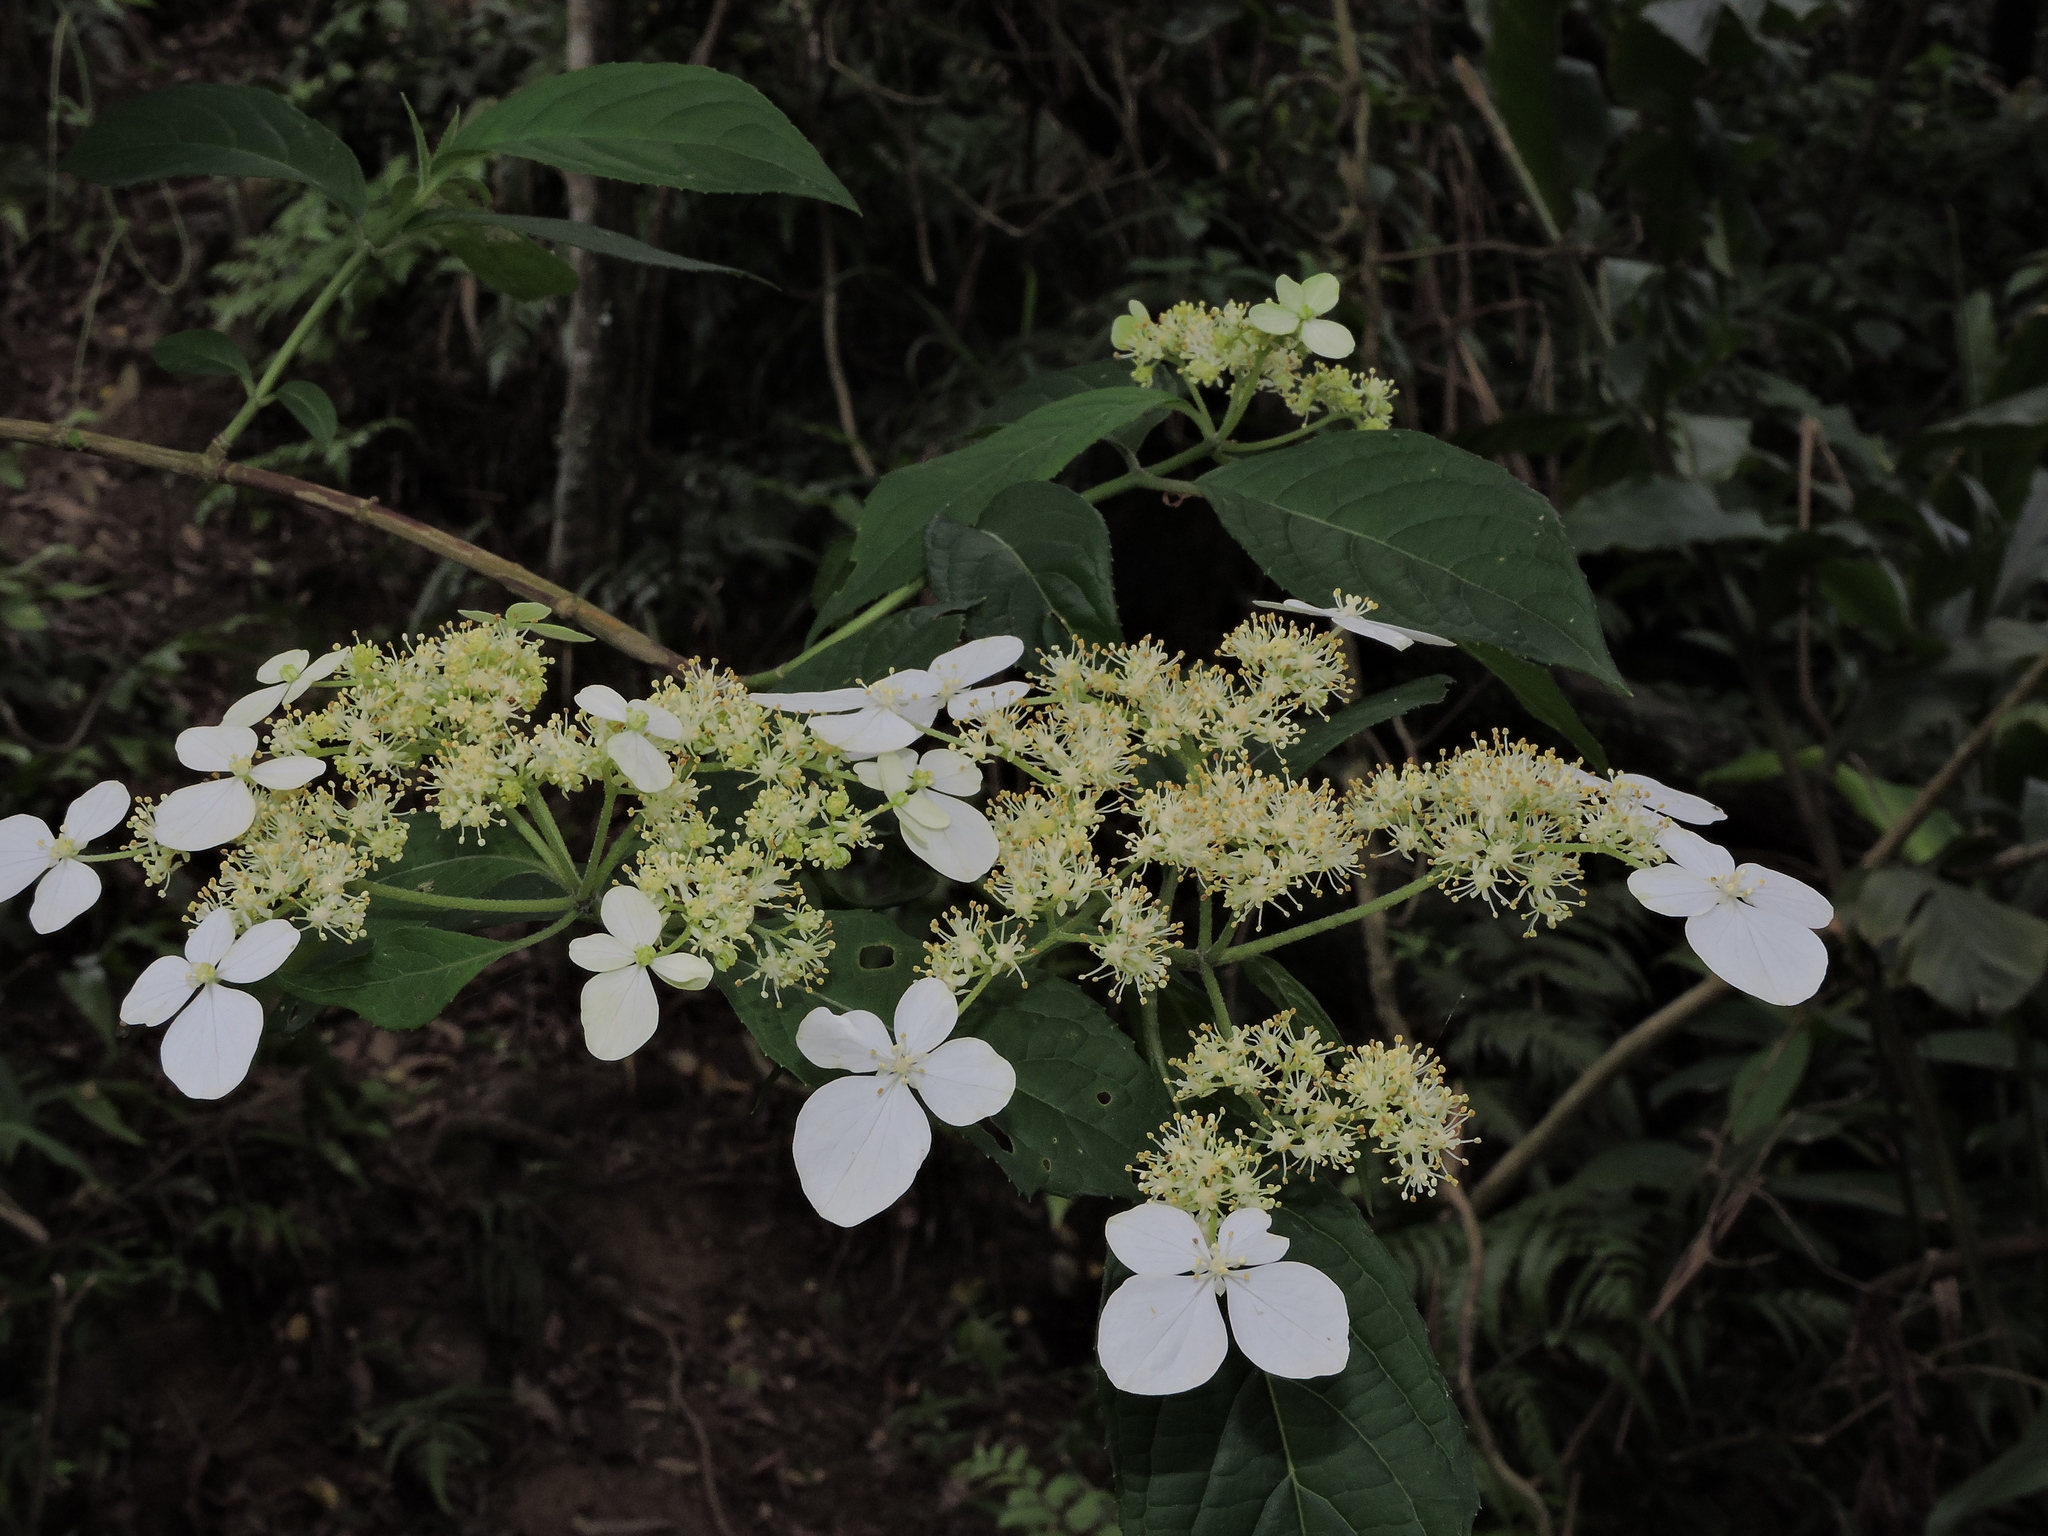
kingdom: Plantae
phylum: Tracheophyta
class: Magnoliopsida
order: Cornales
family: Hydrangeaceae
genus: Hydrangea
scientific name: Hydrangea chinensis
